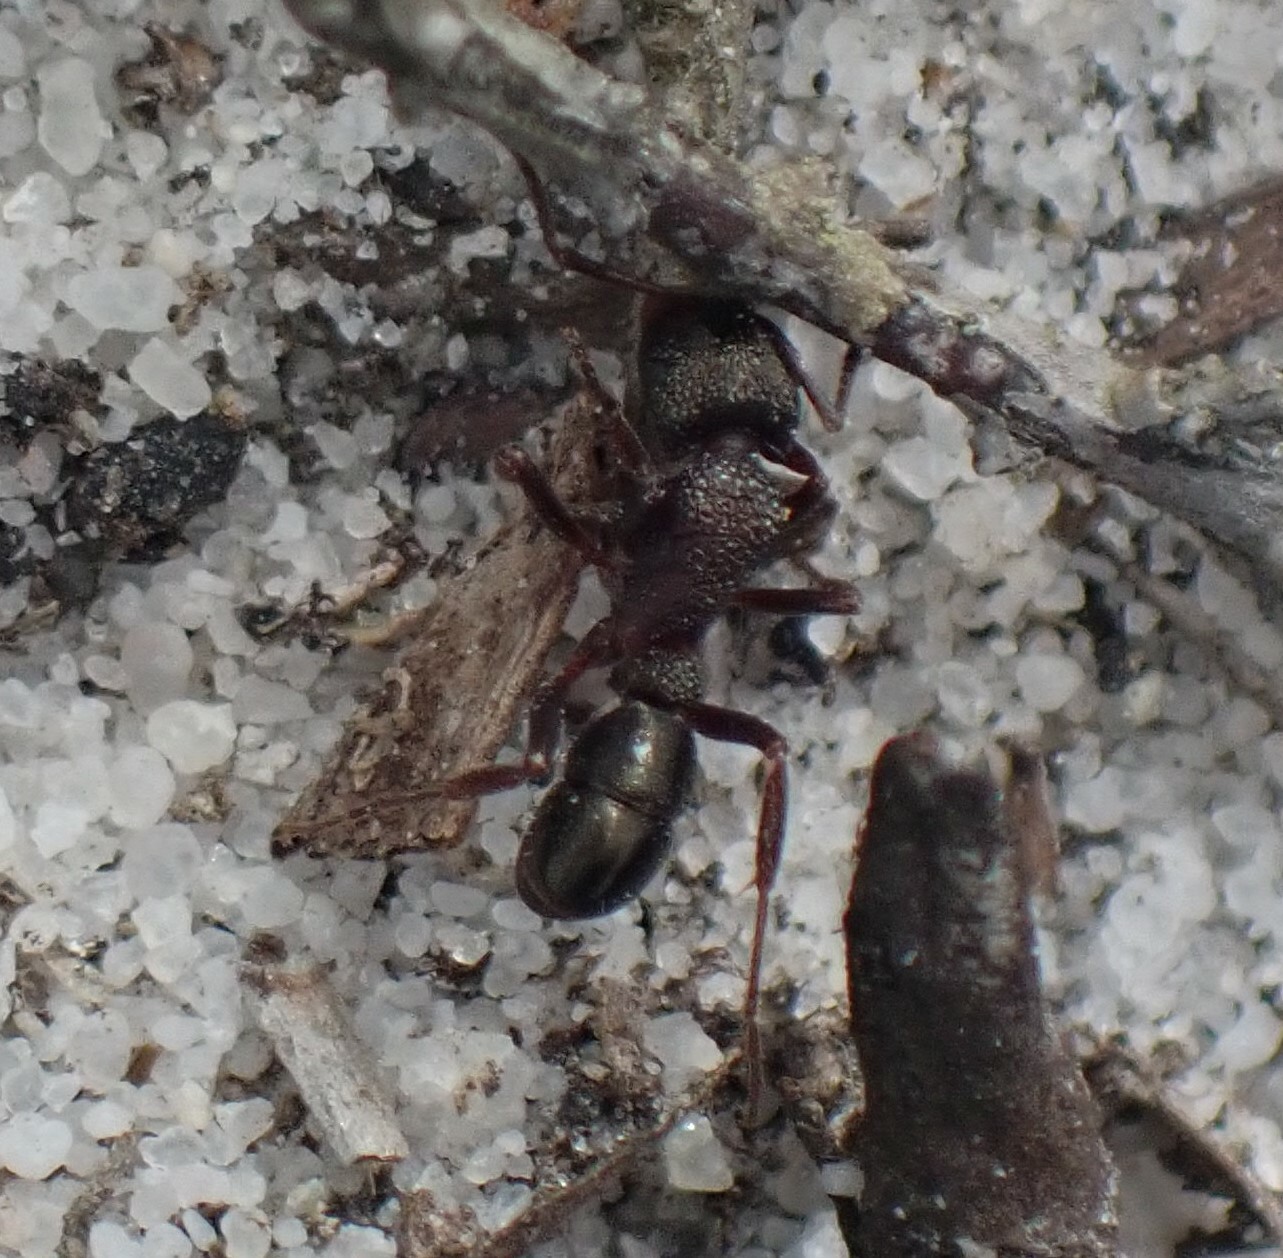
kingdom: Animalia
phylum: Arthropoda
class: Insecta
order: Hymenoptera
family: Formicidae
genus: Rhytidoponera
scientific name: Rhytidoponera tasmaniensis
